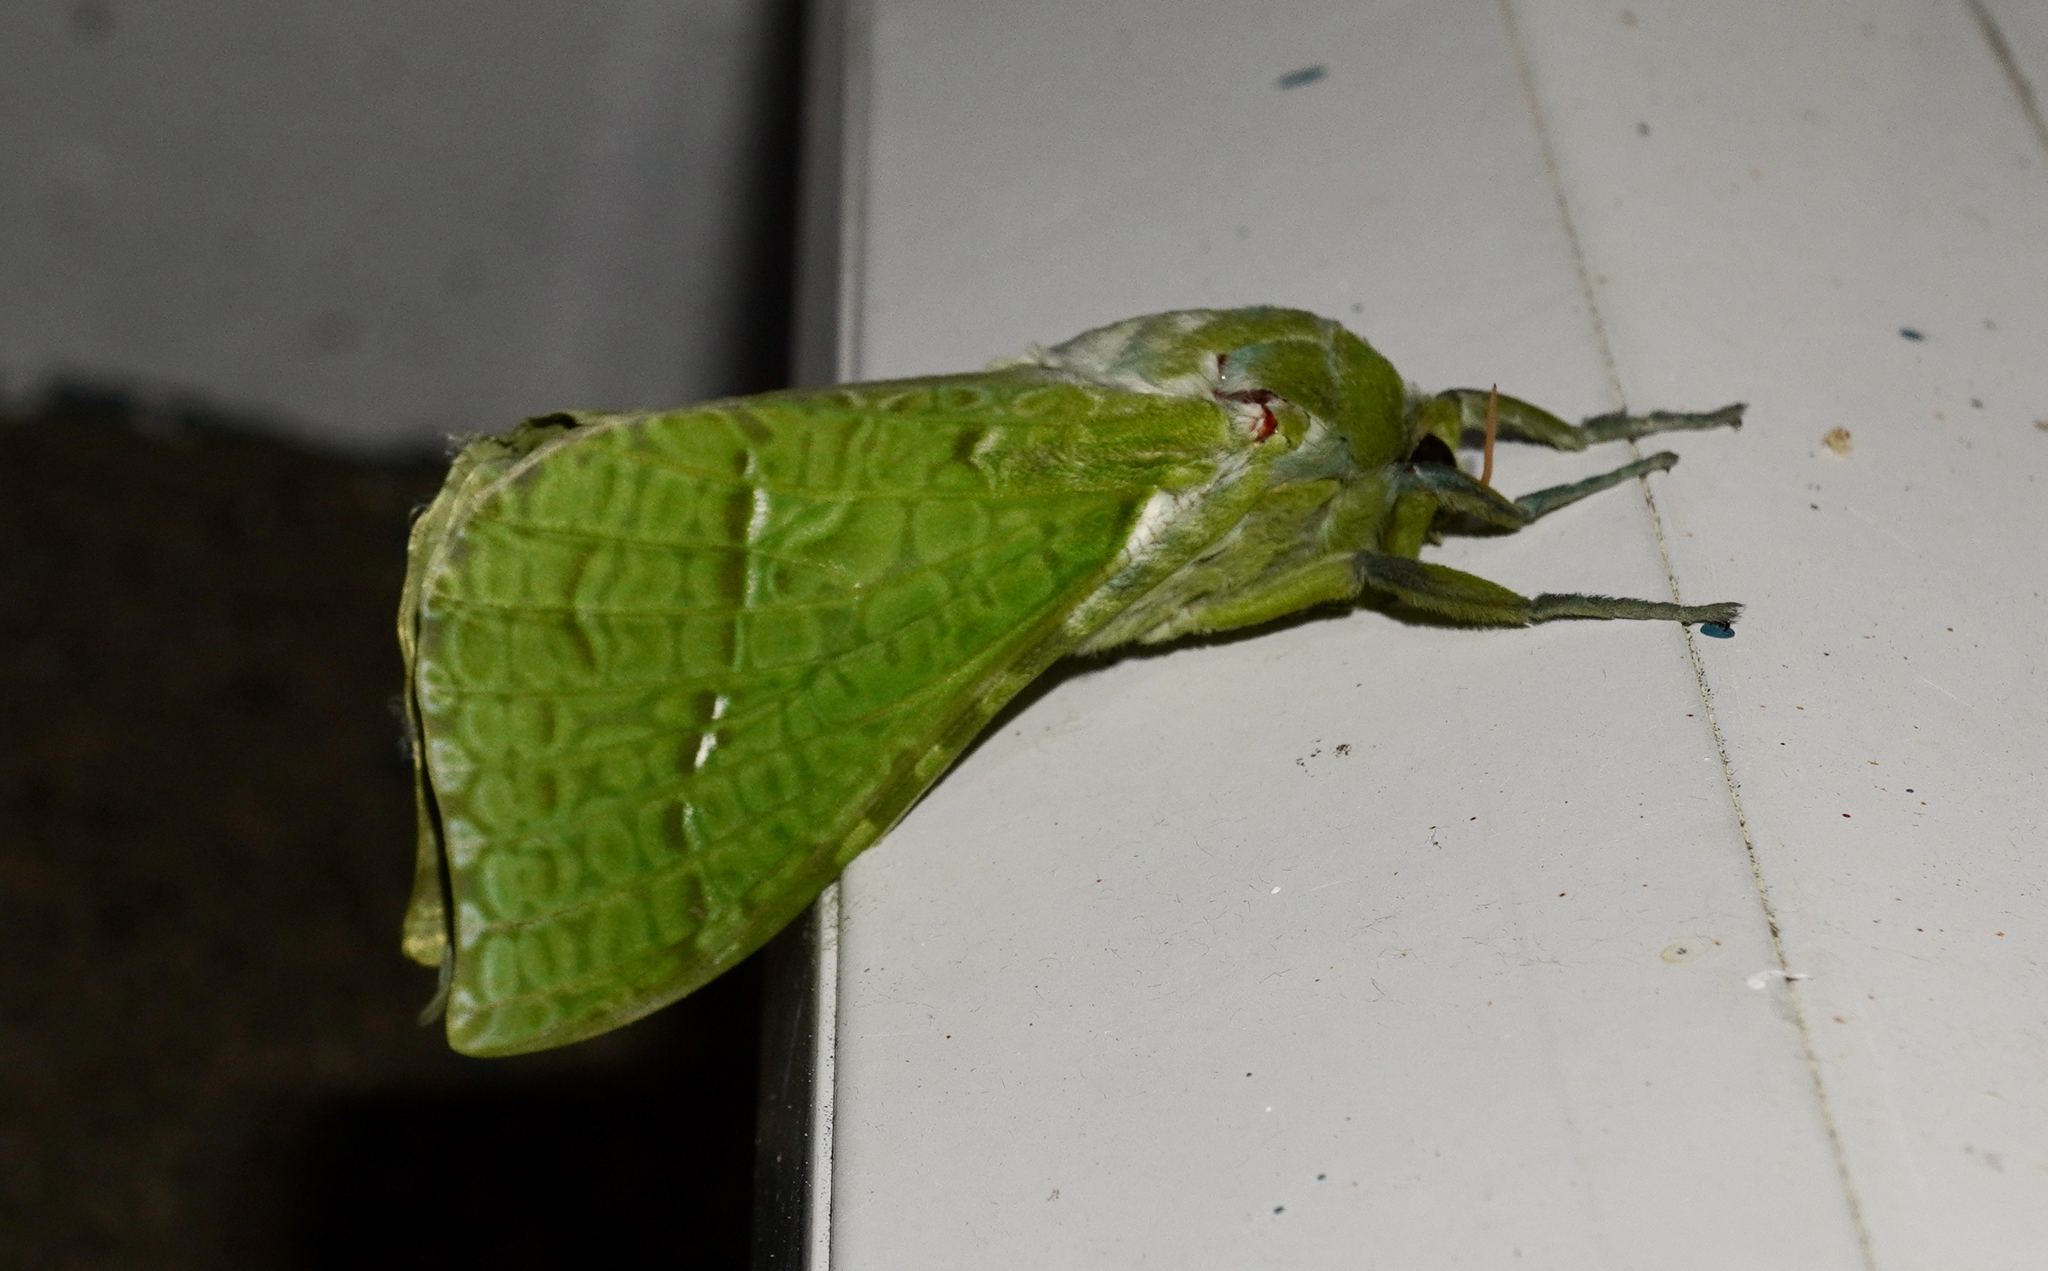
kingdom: Animalia
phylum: Arthropoda
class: Insecta
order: Lepidoptera
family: Hepialidae
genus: Aenetus
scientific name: Aenetus virescens
